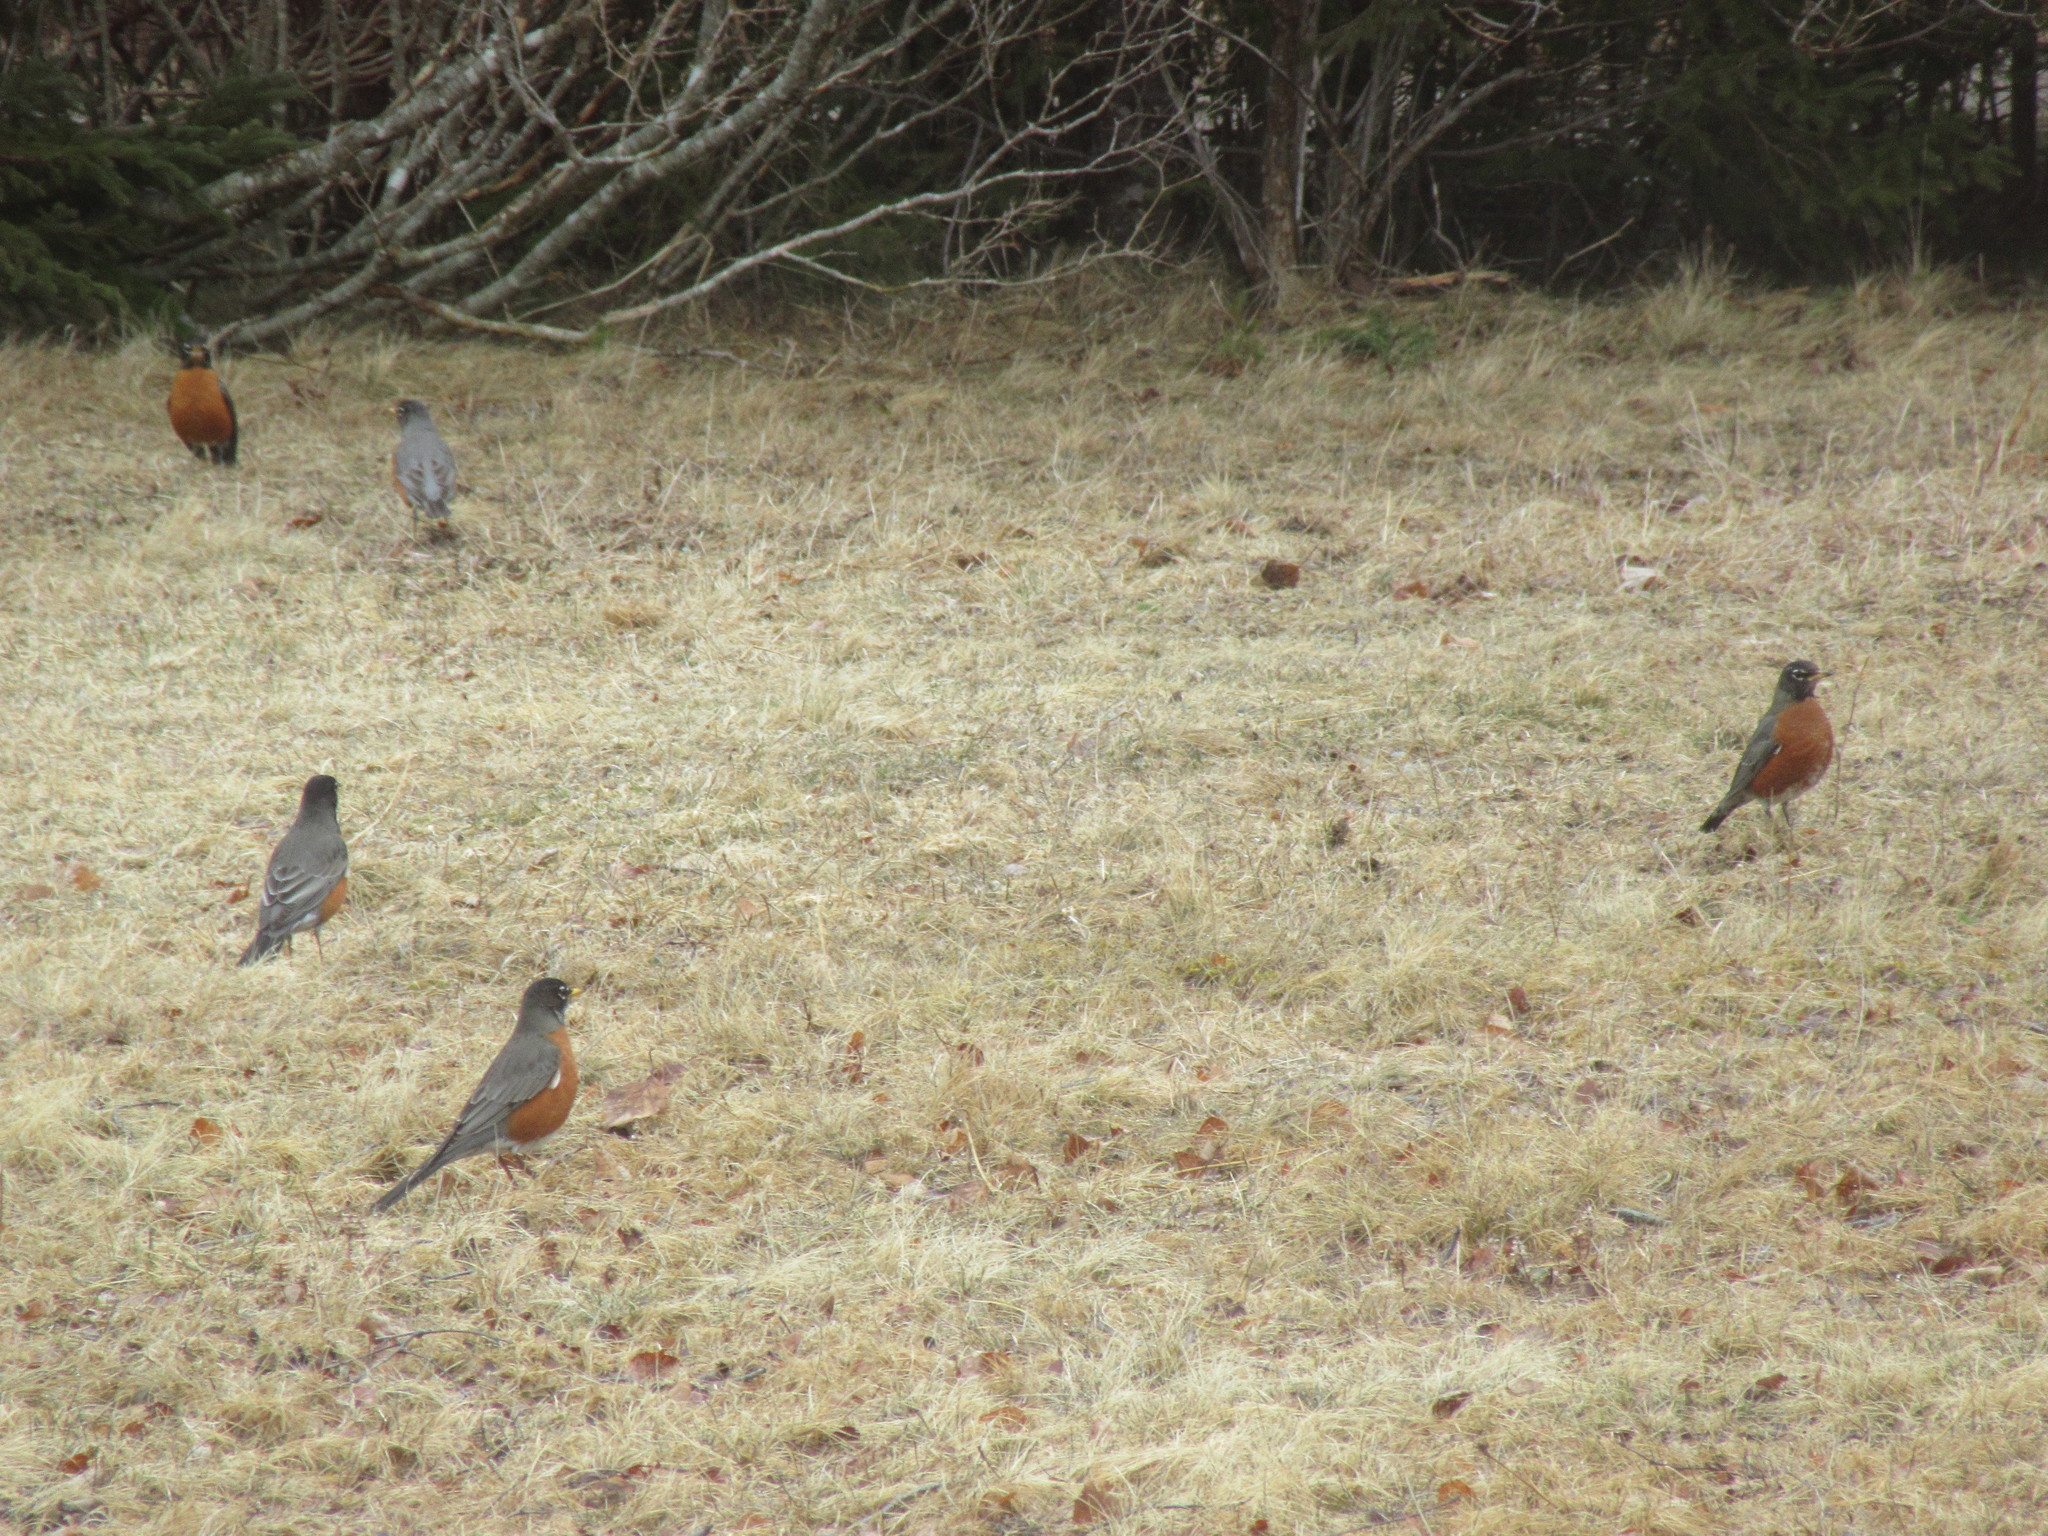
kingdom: Animalia
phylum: Chordata
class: Aves
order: Passeriformes
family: Turdidae
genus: Turdus
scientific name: Turdus migratorius
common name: American robin
